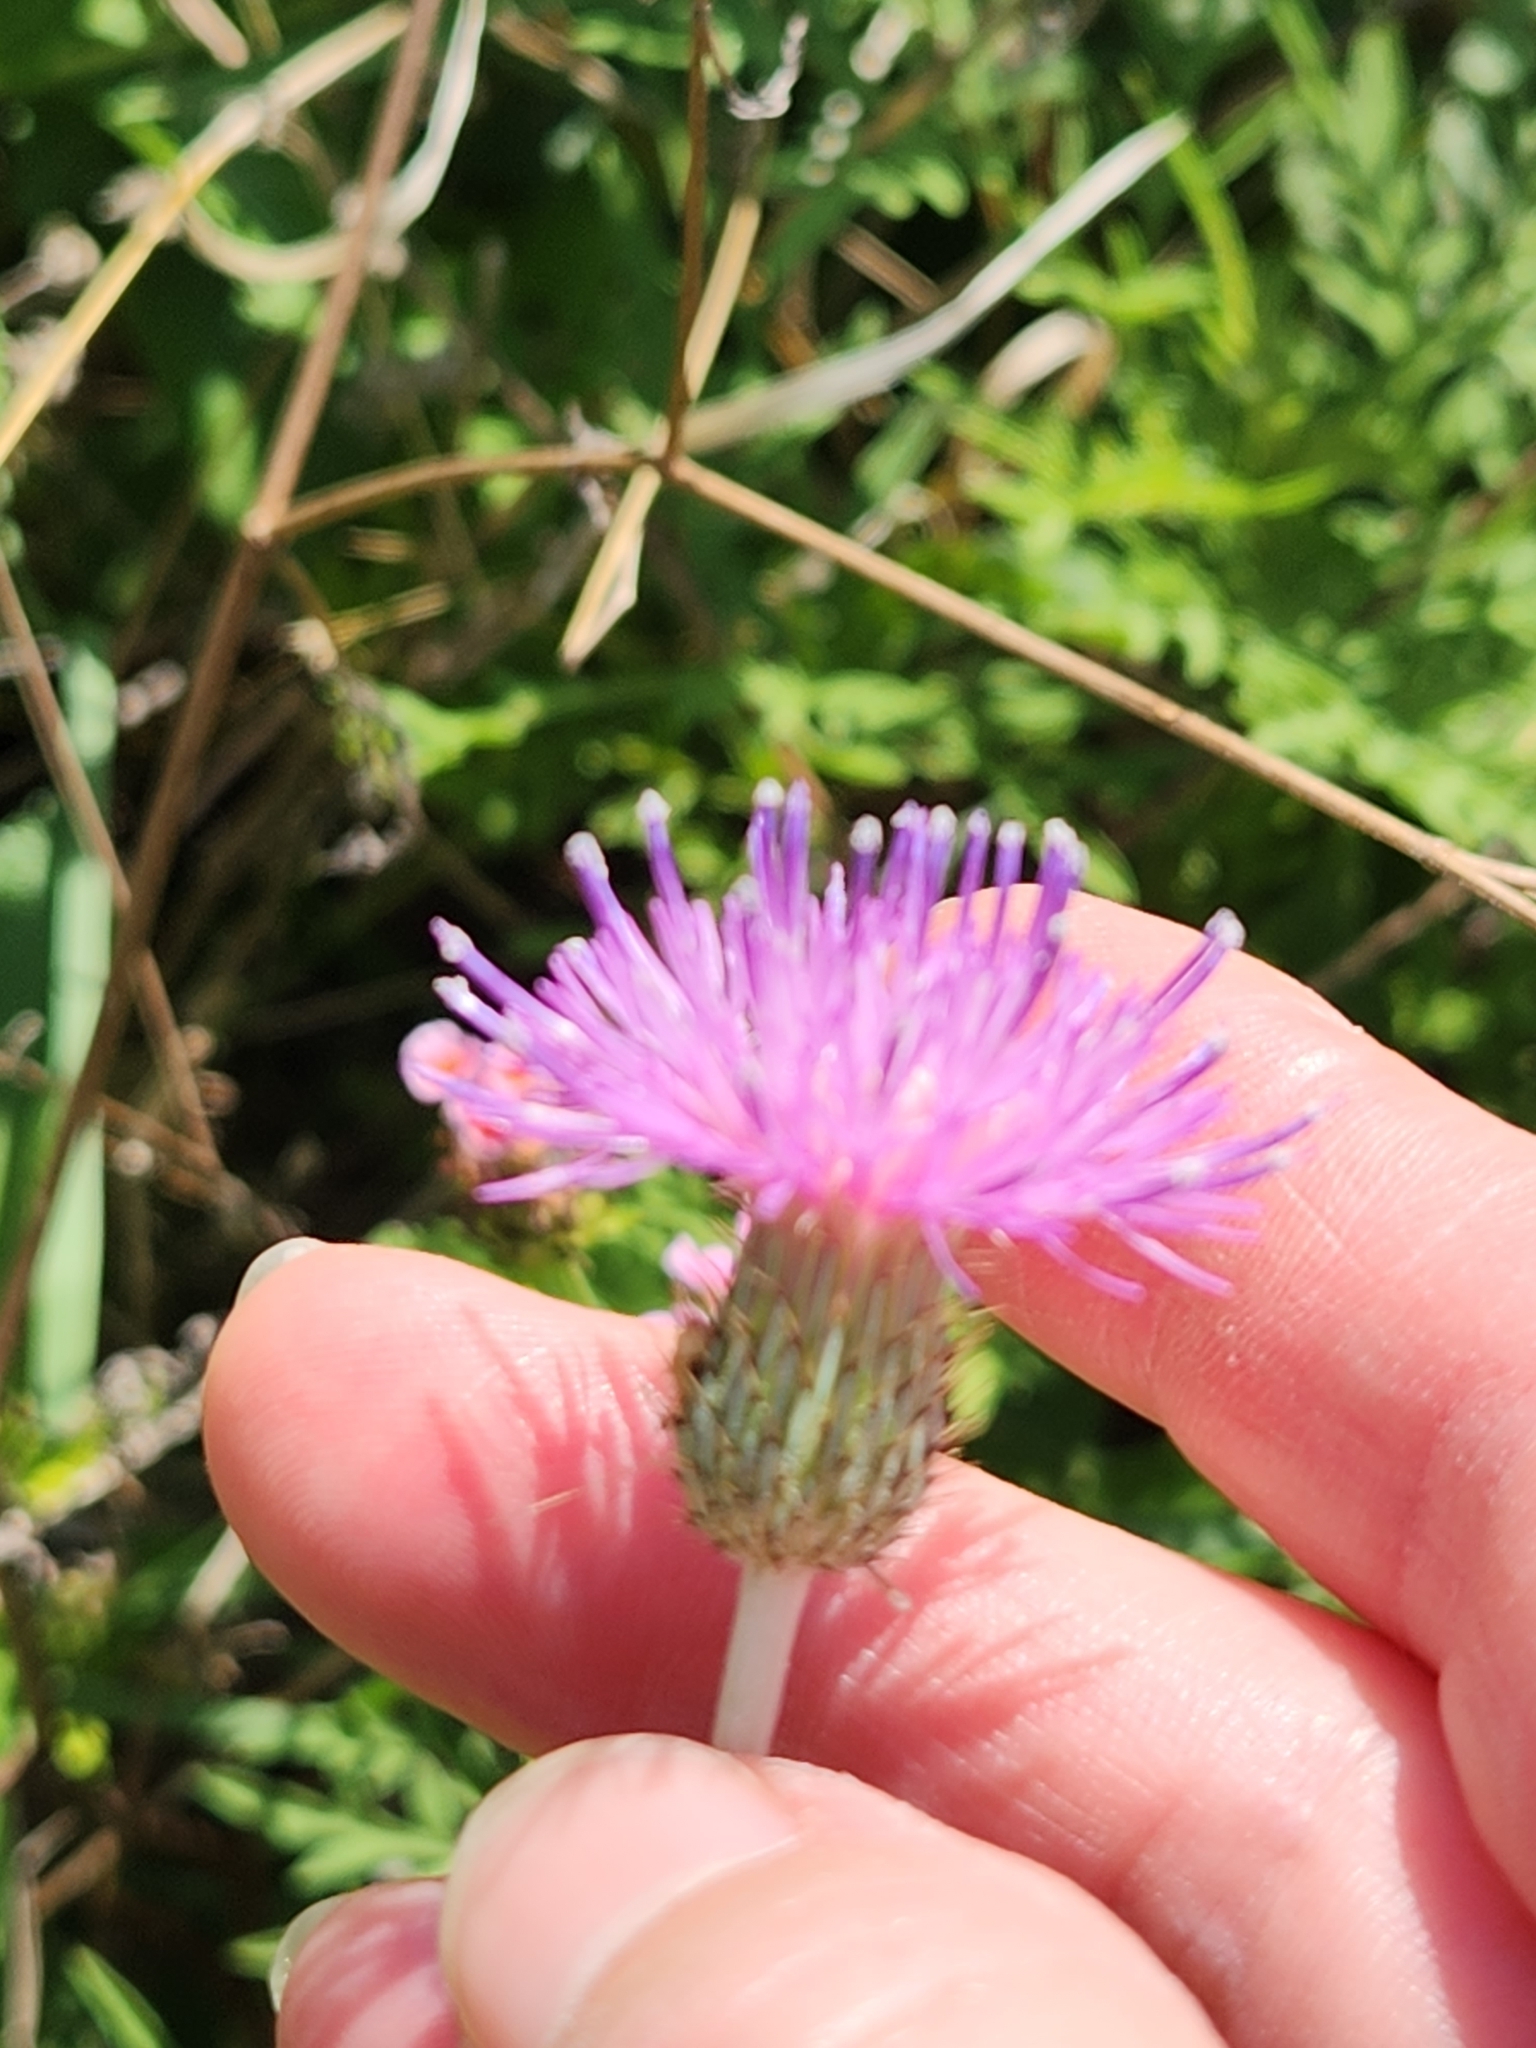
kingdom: Plantae
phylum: Tracheophyta
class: Magnoliopsida
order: Asterales
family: Asteraceae
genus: Cirsium
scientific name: Cirsium texanum
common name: Texas purple thistle
